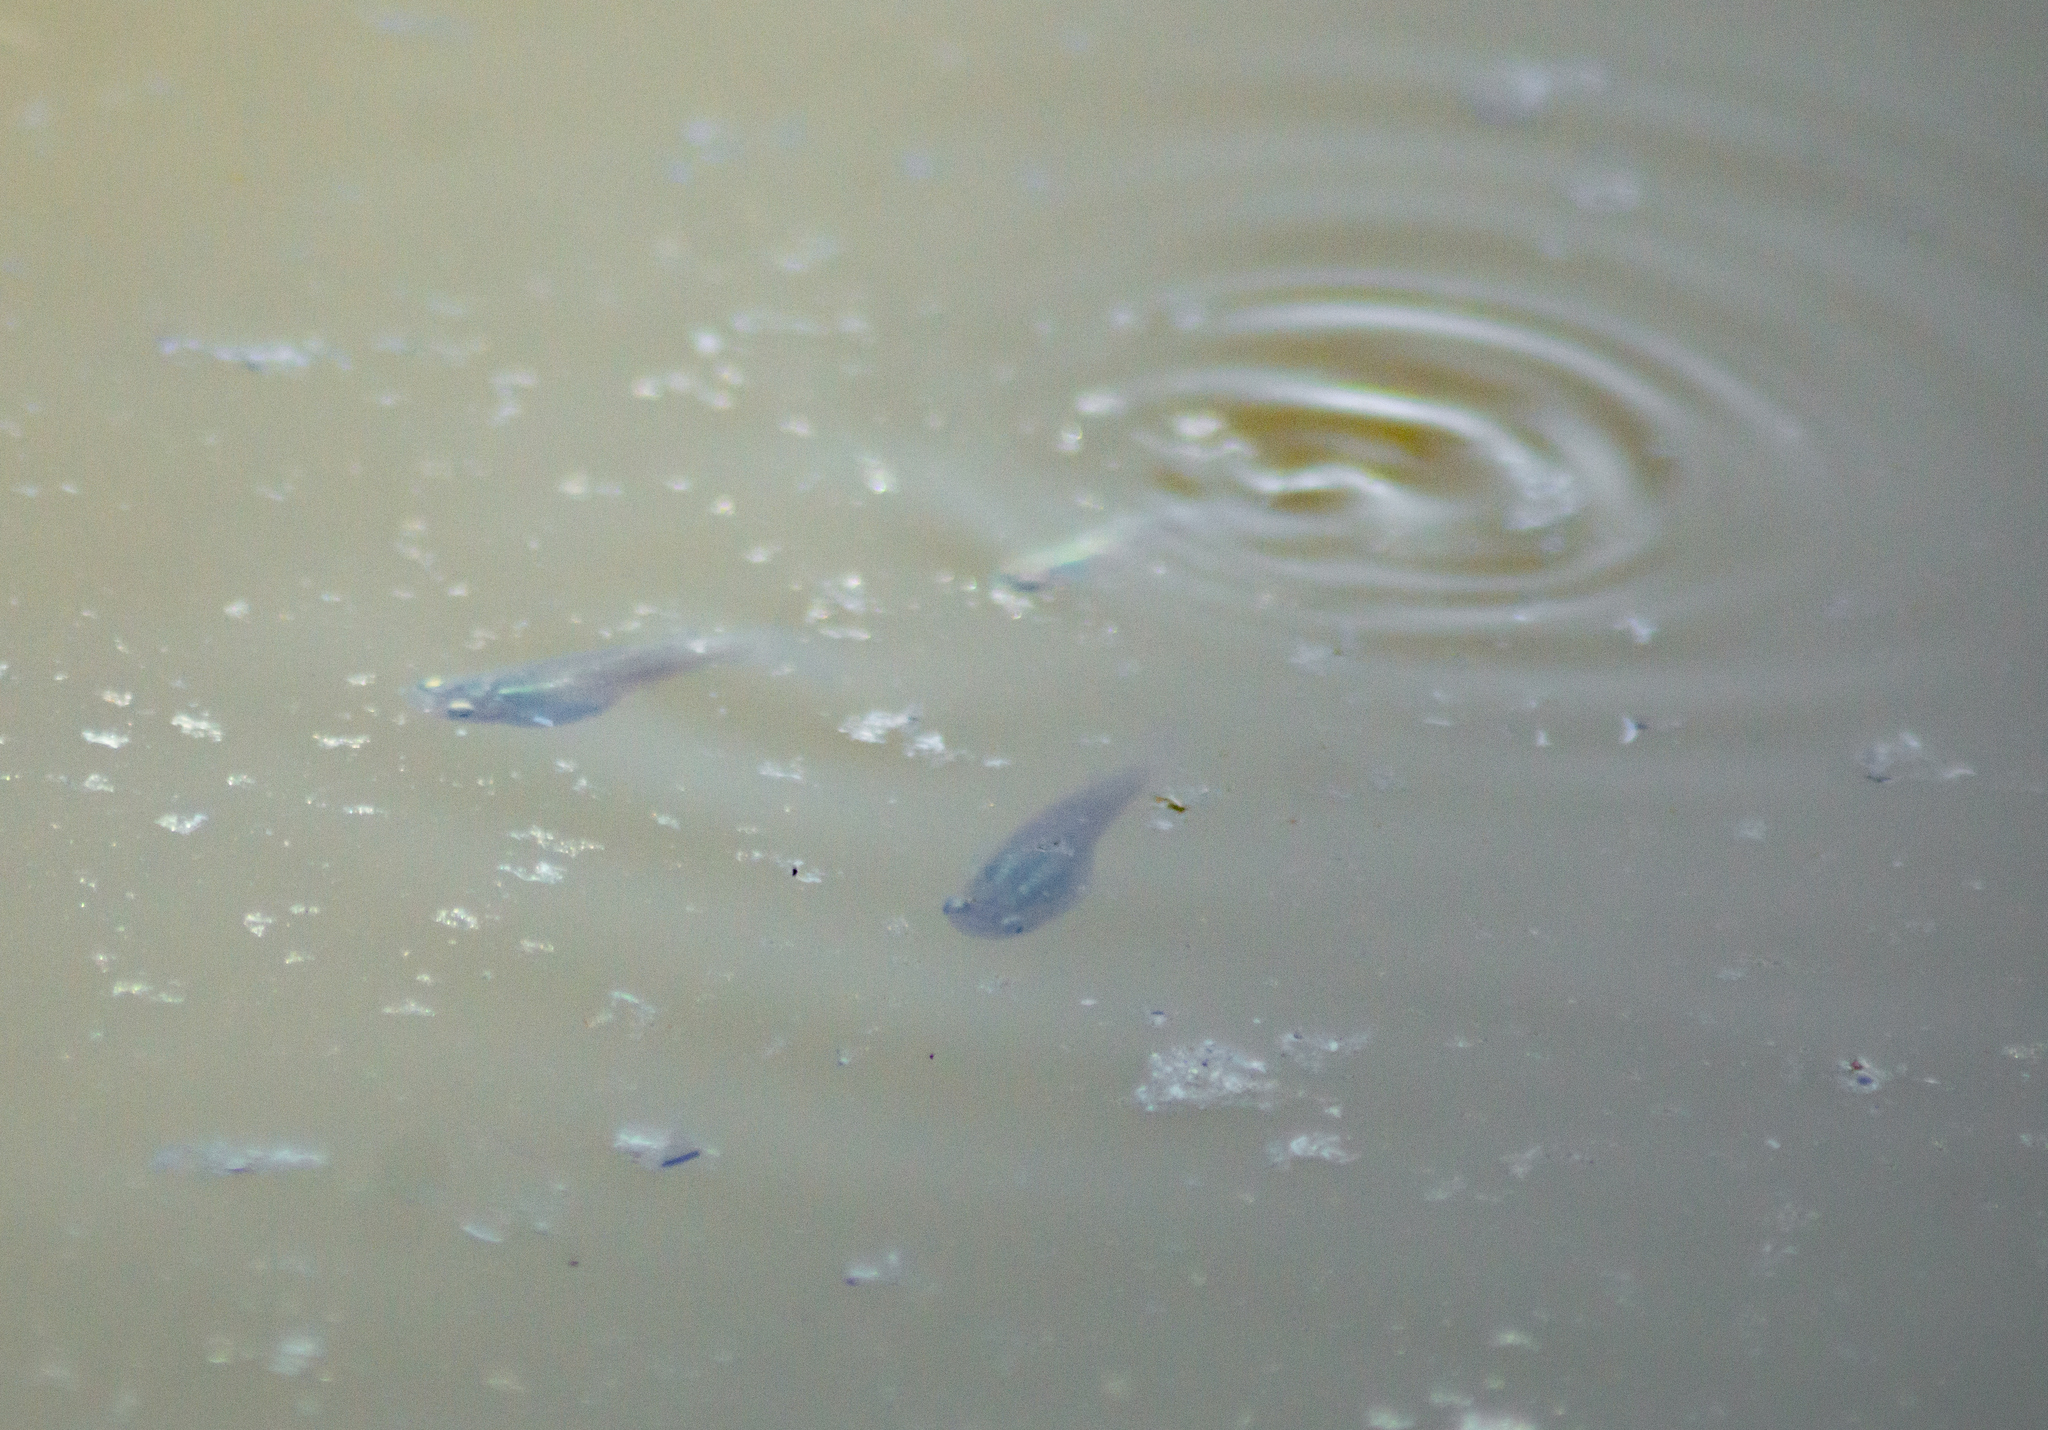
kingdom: Animalia
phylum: Chordata
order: Cyprinodontiformes
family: Poeciliidae
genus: Gambusia
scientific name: Gambusia holbrooki
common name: Eastern mosquitofish
